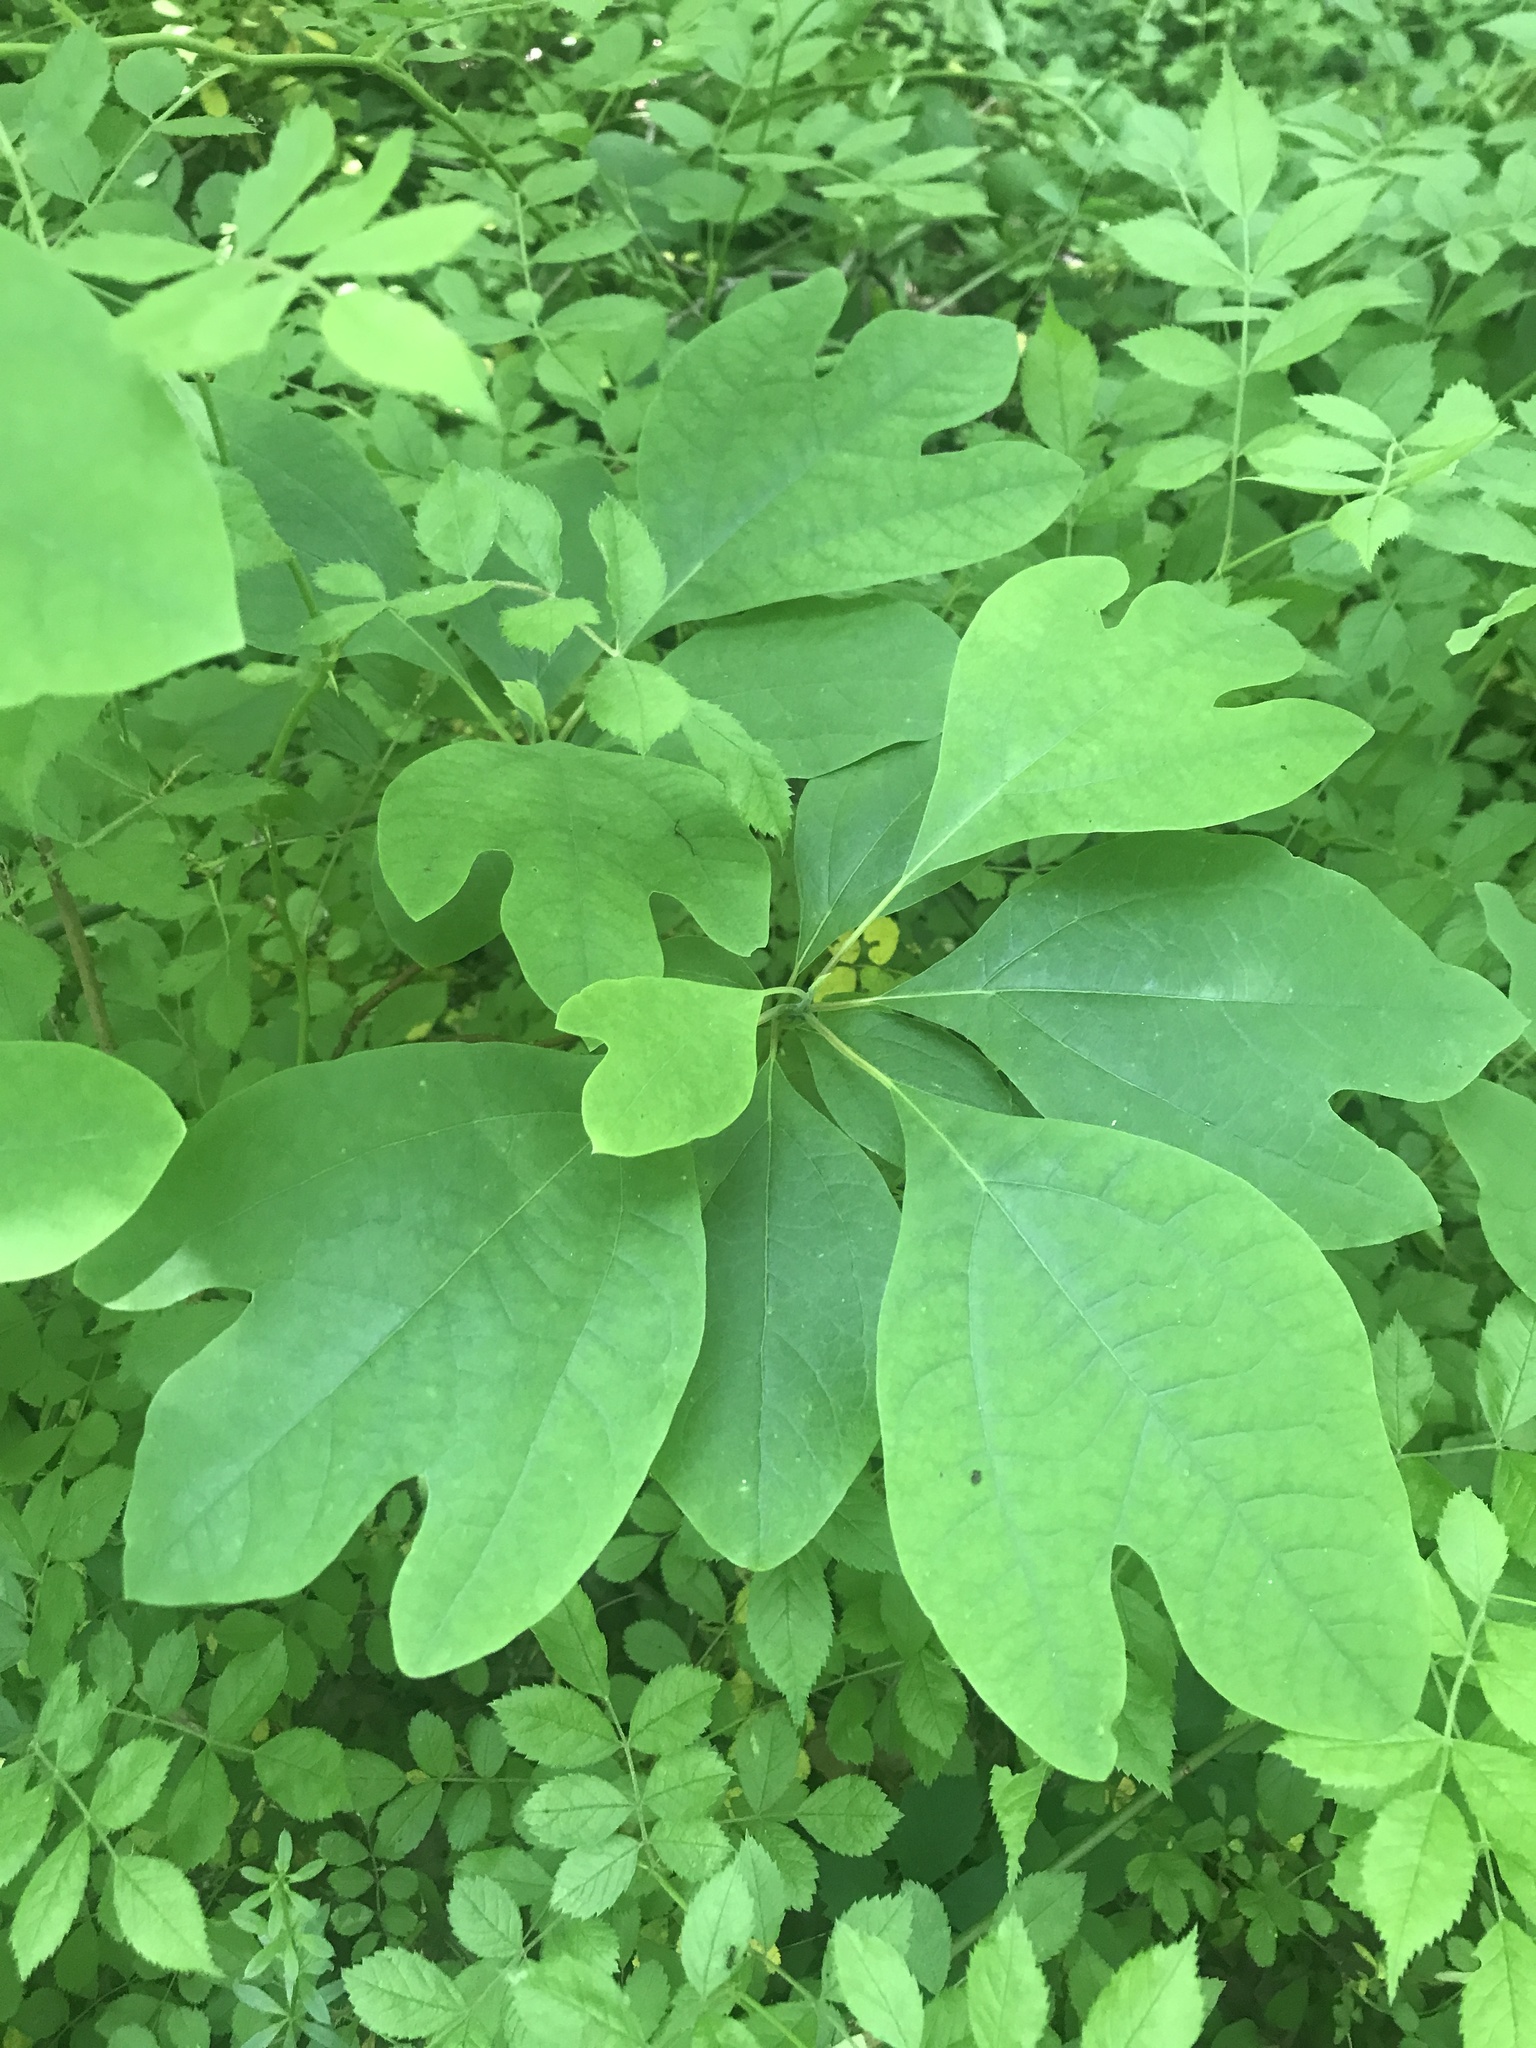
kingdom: Plantae
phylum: Tracheophyta
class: Magnoliopsida
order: Laurales
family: Lauraceae
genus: Sassafras
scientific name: Sassafras albidum
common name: Sassafras
